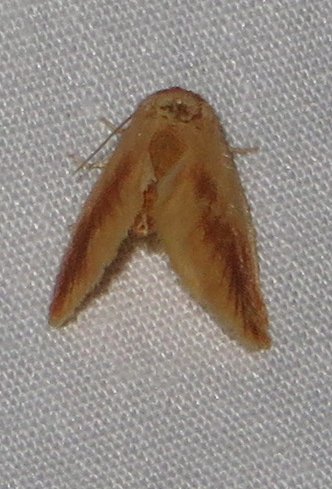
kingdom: Animalia
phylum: Arthropoda
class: Insecta
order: Lepidoptera
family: Limacodidae
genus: Tortricidia
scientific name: Tortricidia testacea
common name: Early button slug moth
